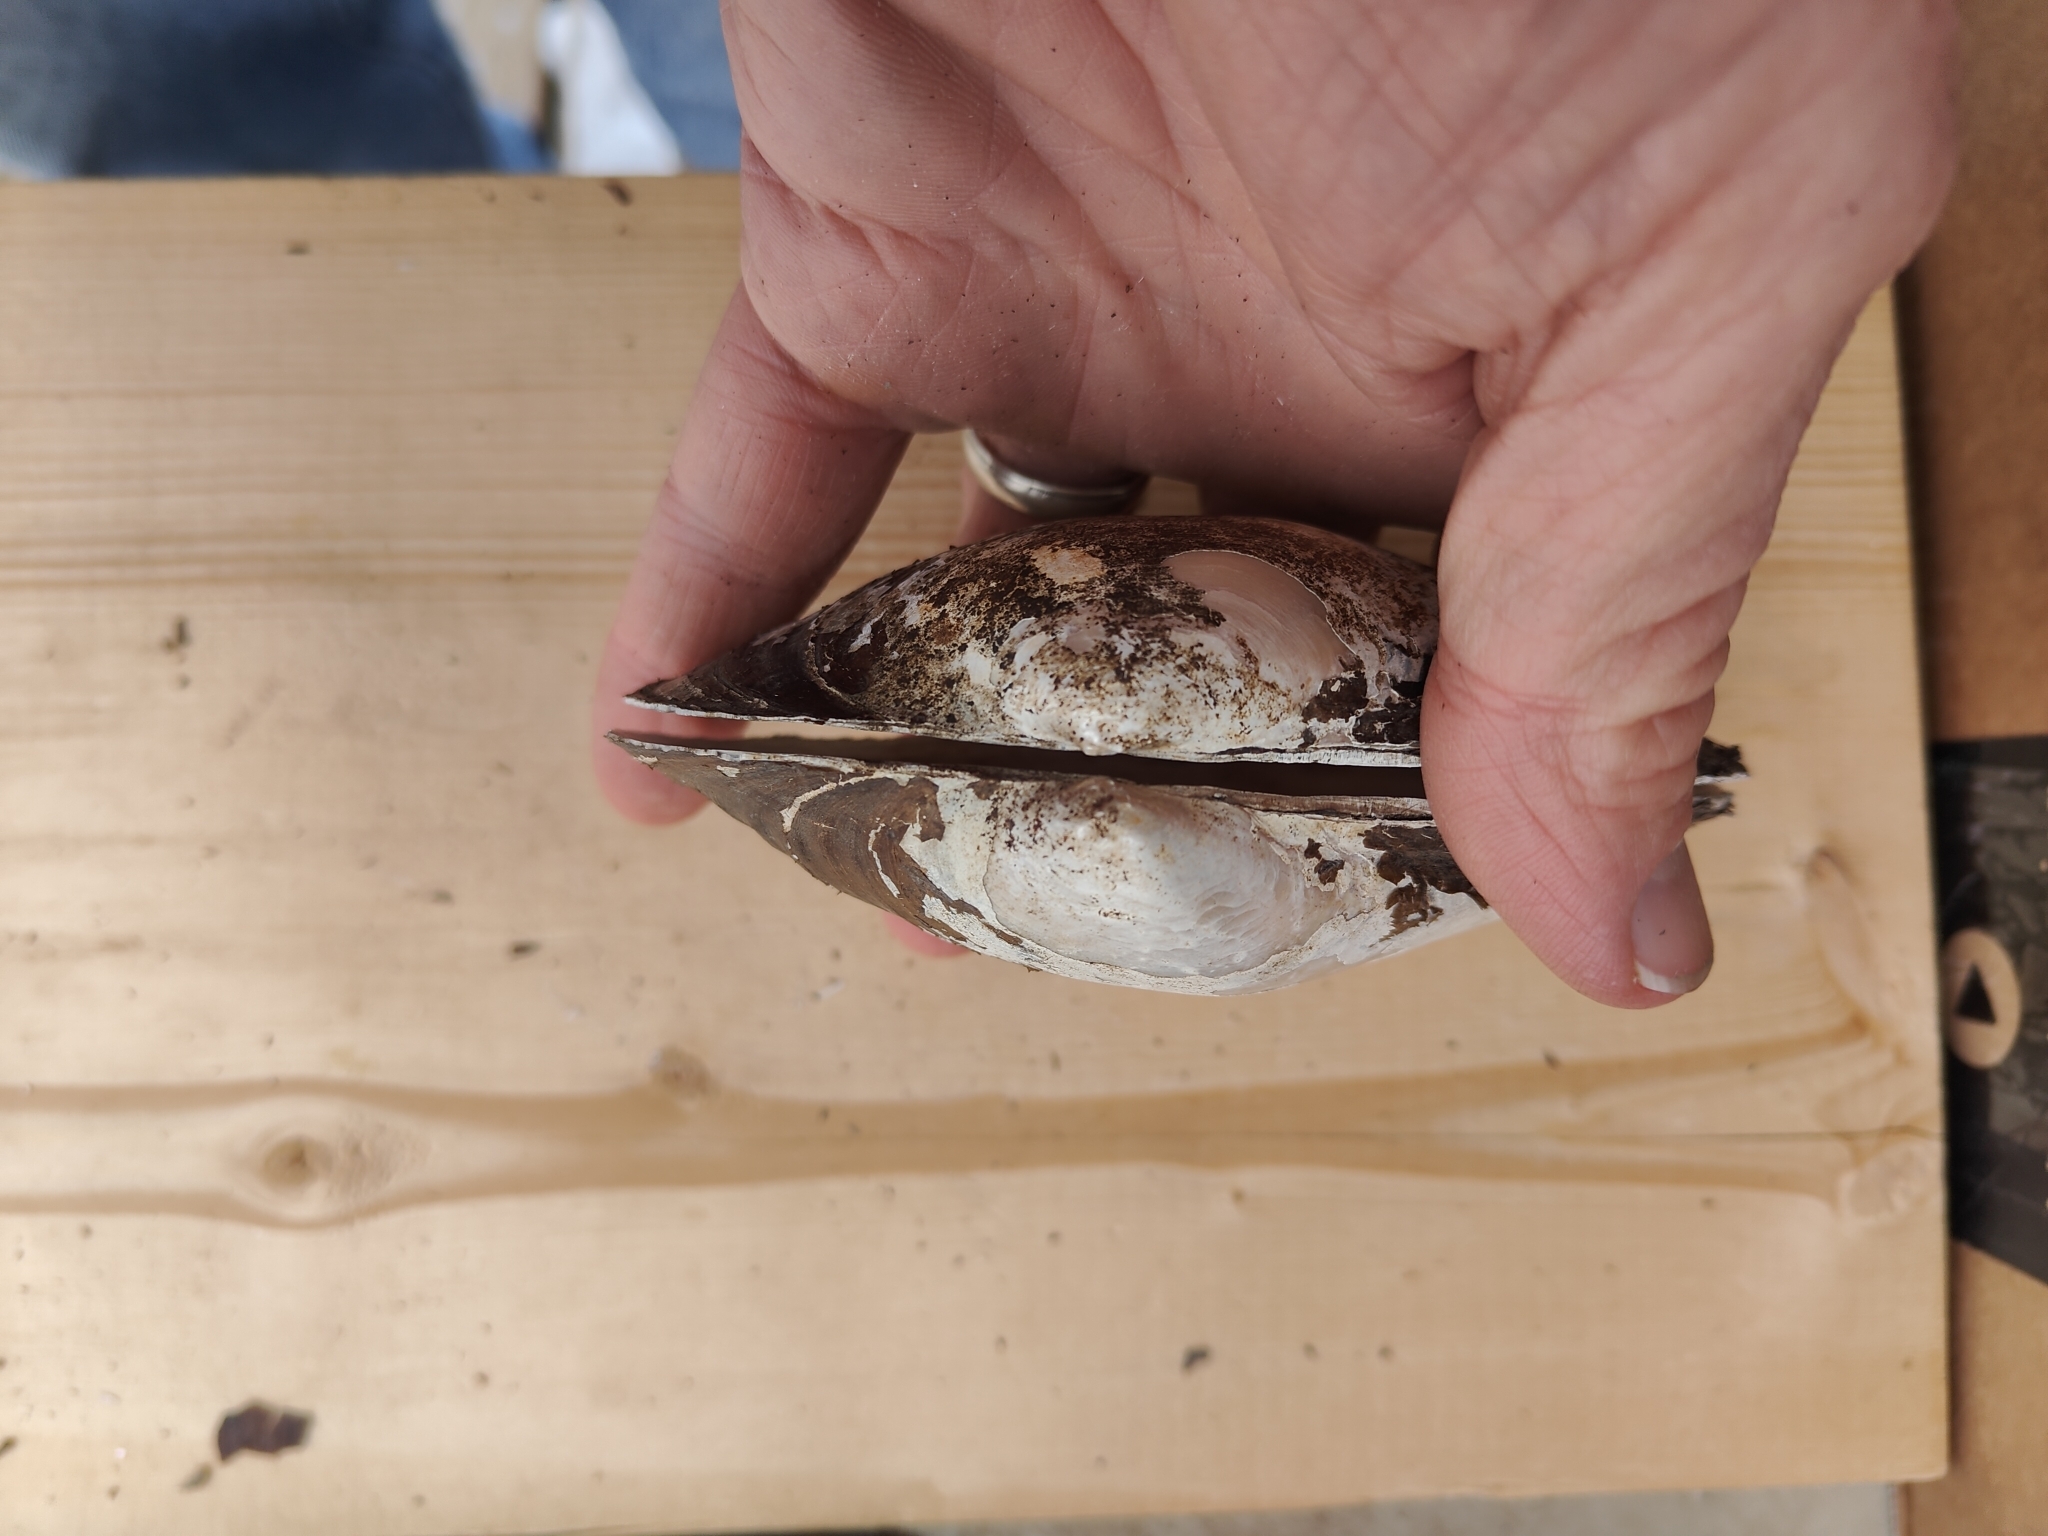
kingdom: Animalia
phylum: Mollusca
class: Bivalvia
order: Unionida
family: Unionidae
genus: Pyganodon
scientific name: Pyganodon grandis
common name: Giant floater
